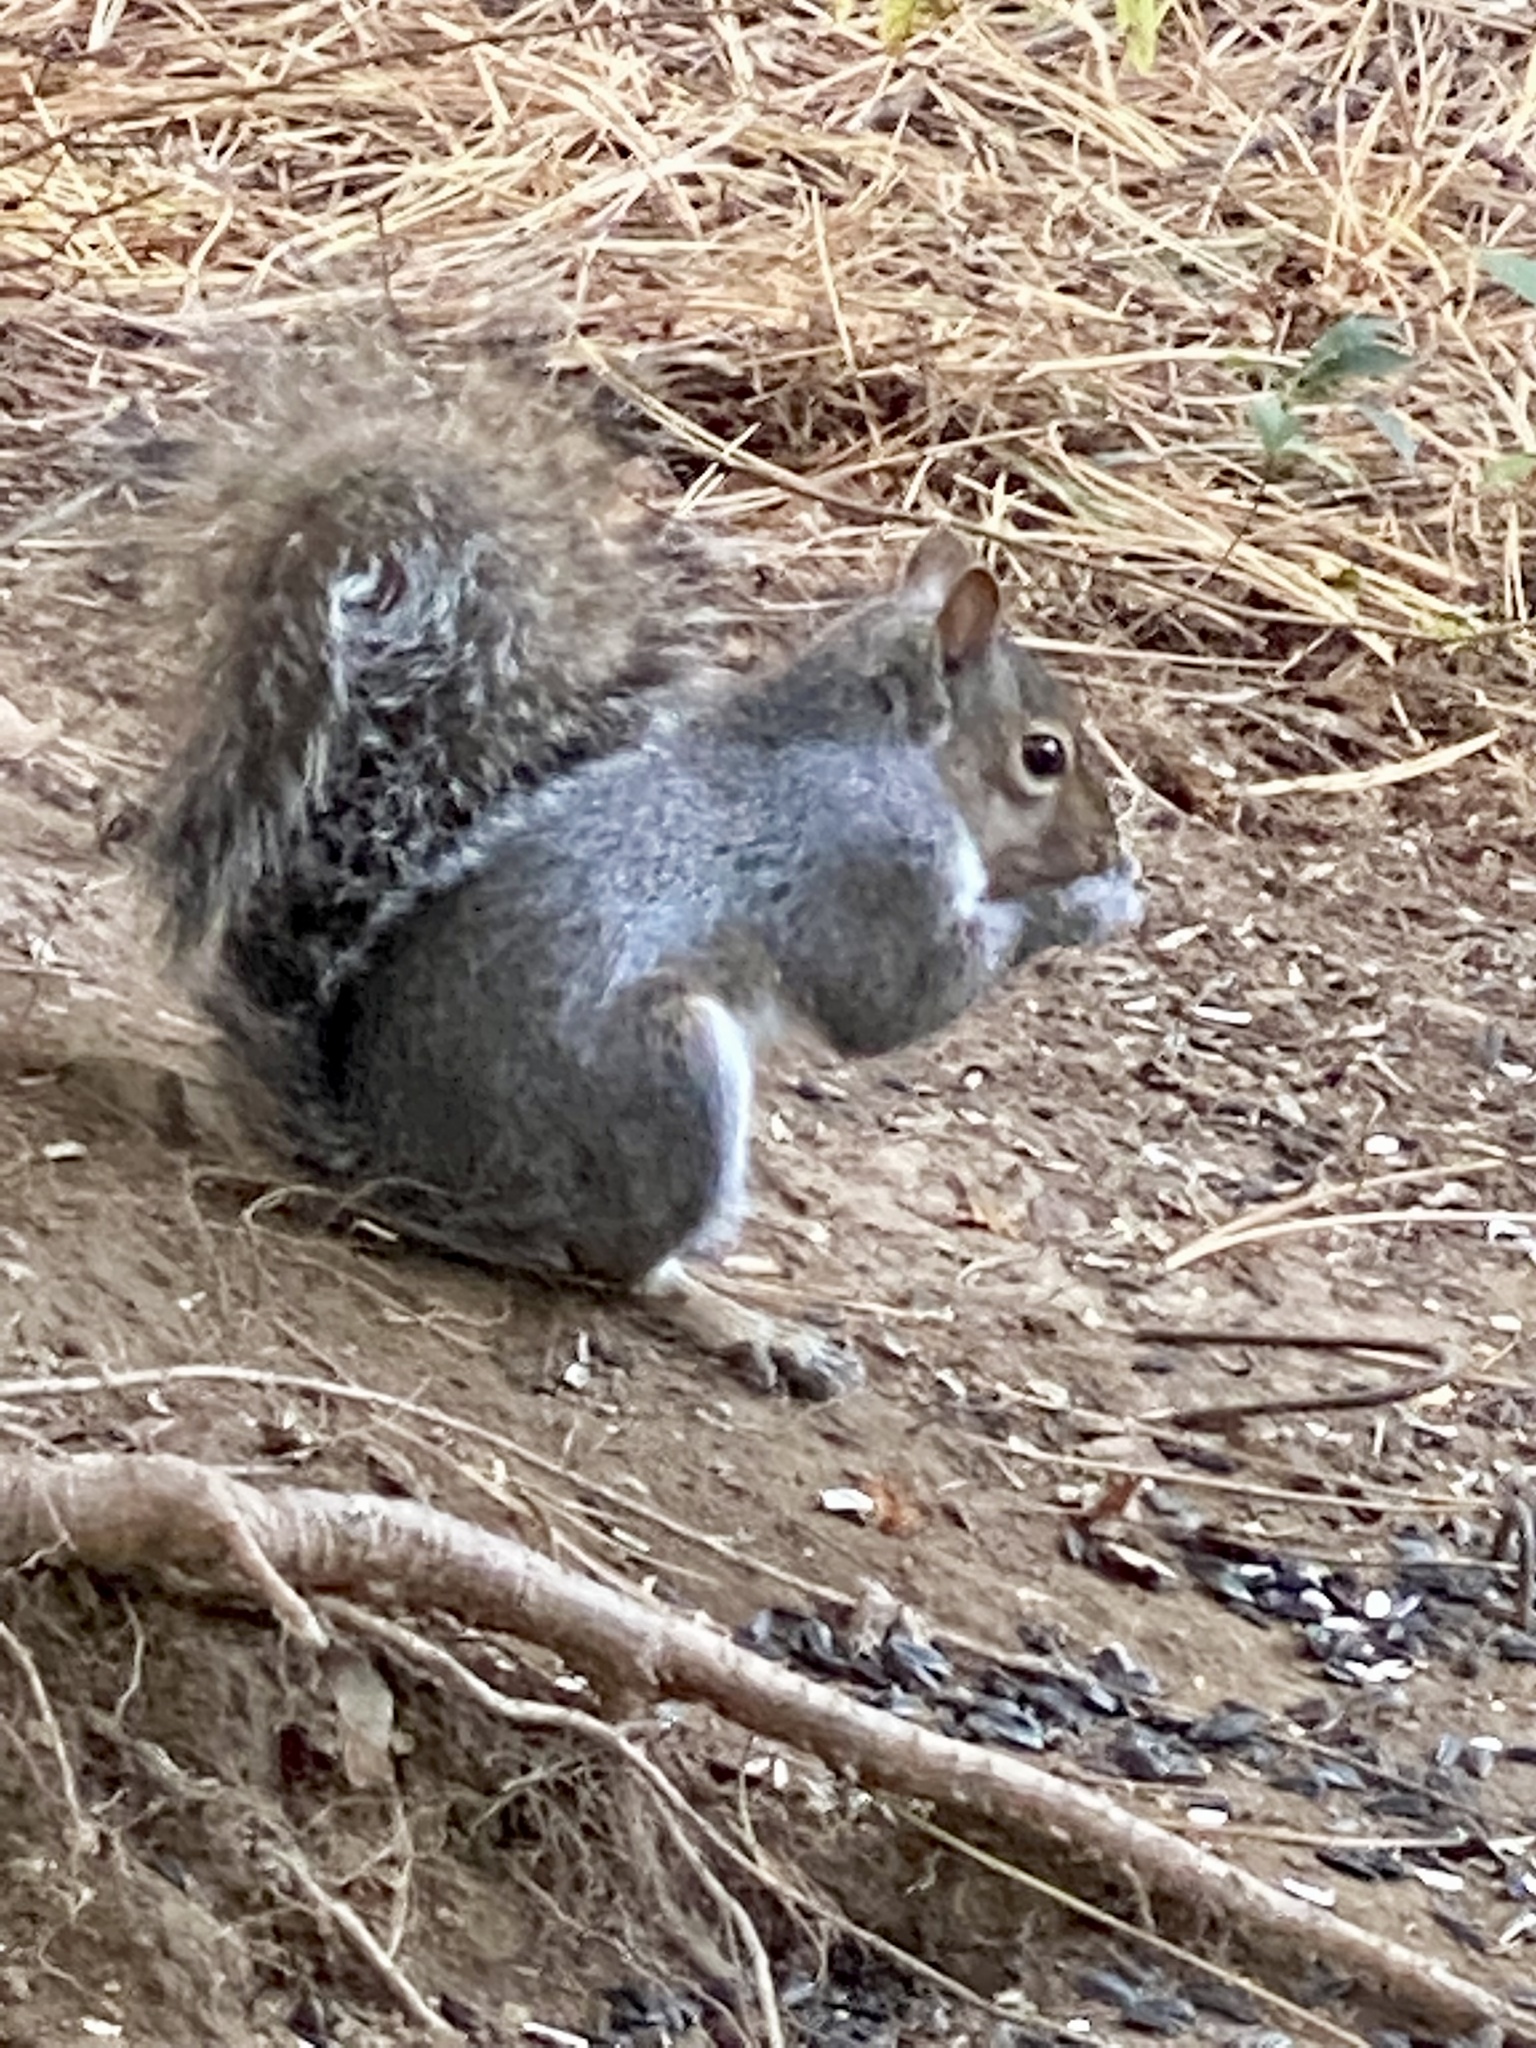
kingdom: Animalia
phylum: Chordata
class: Mammalia
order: Rodentia
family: Sciuridae
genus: Sciurus
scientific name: Sciurus carolinensis
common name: Eastern gray squirrel
